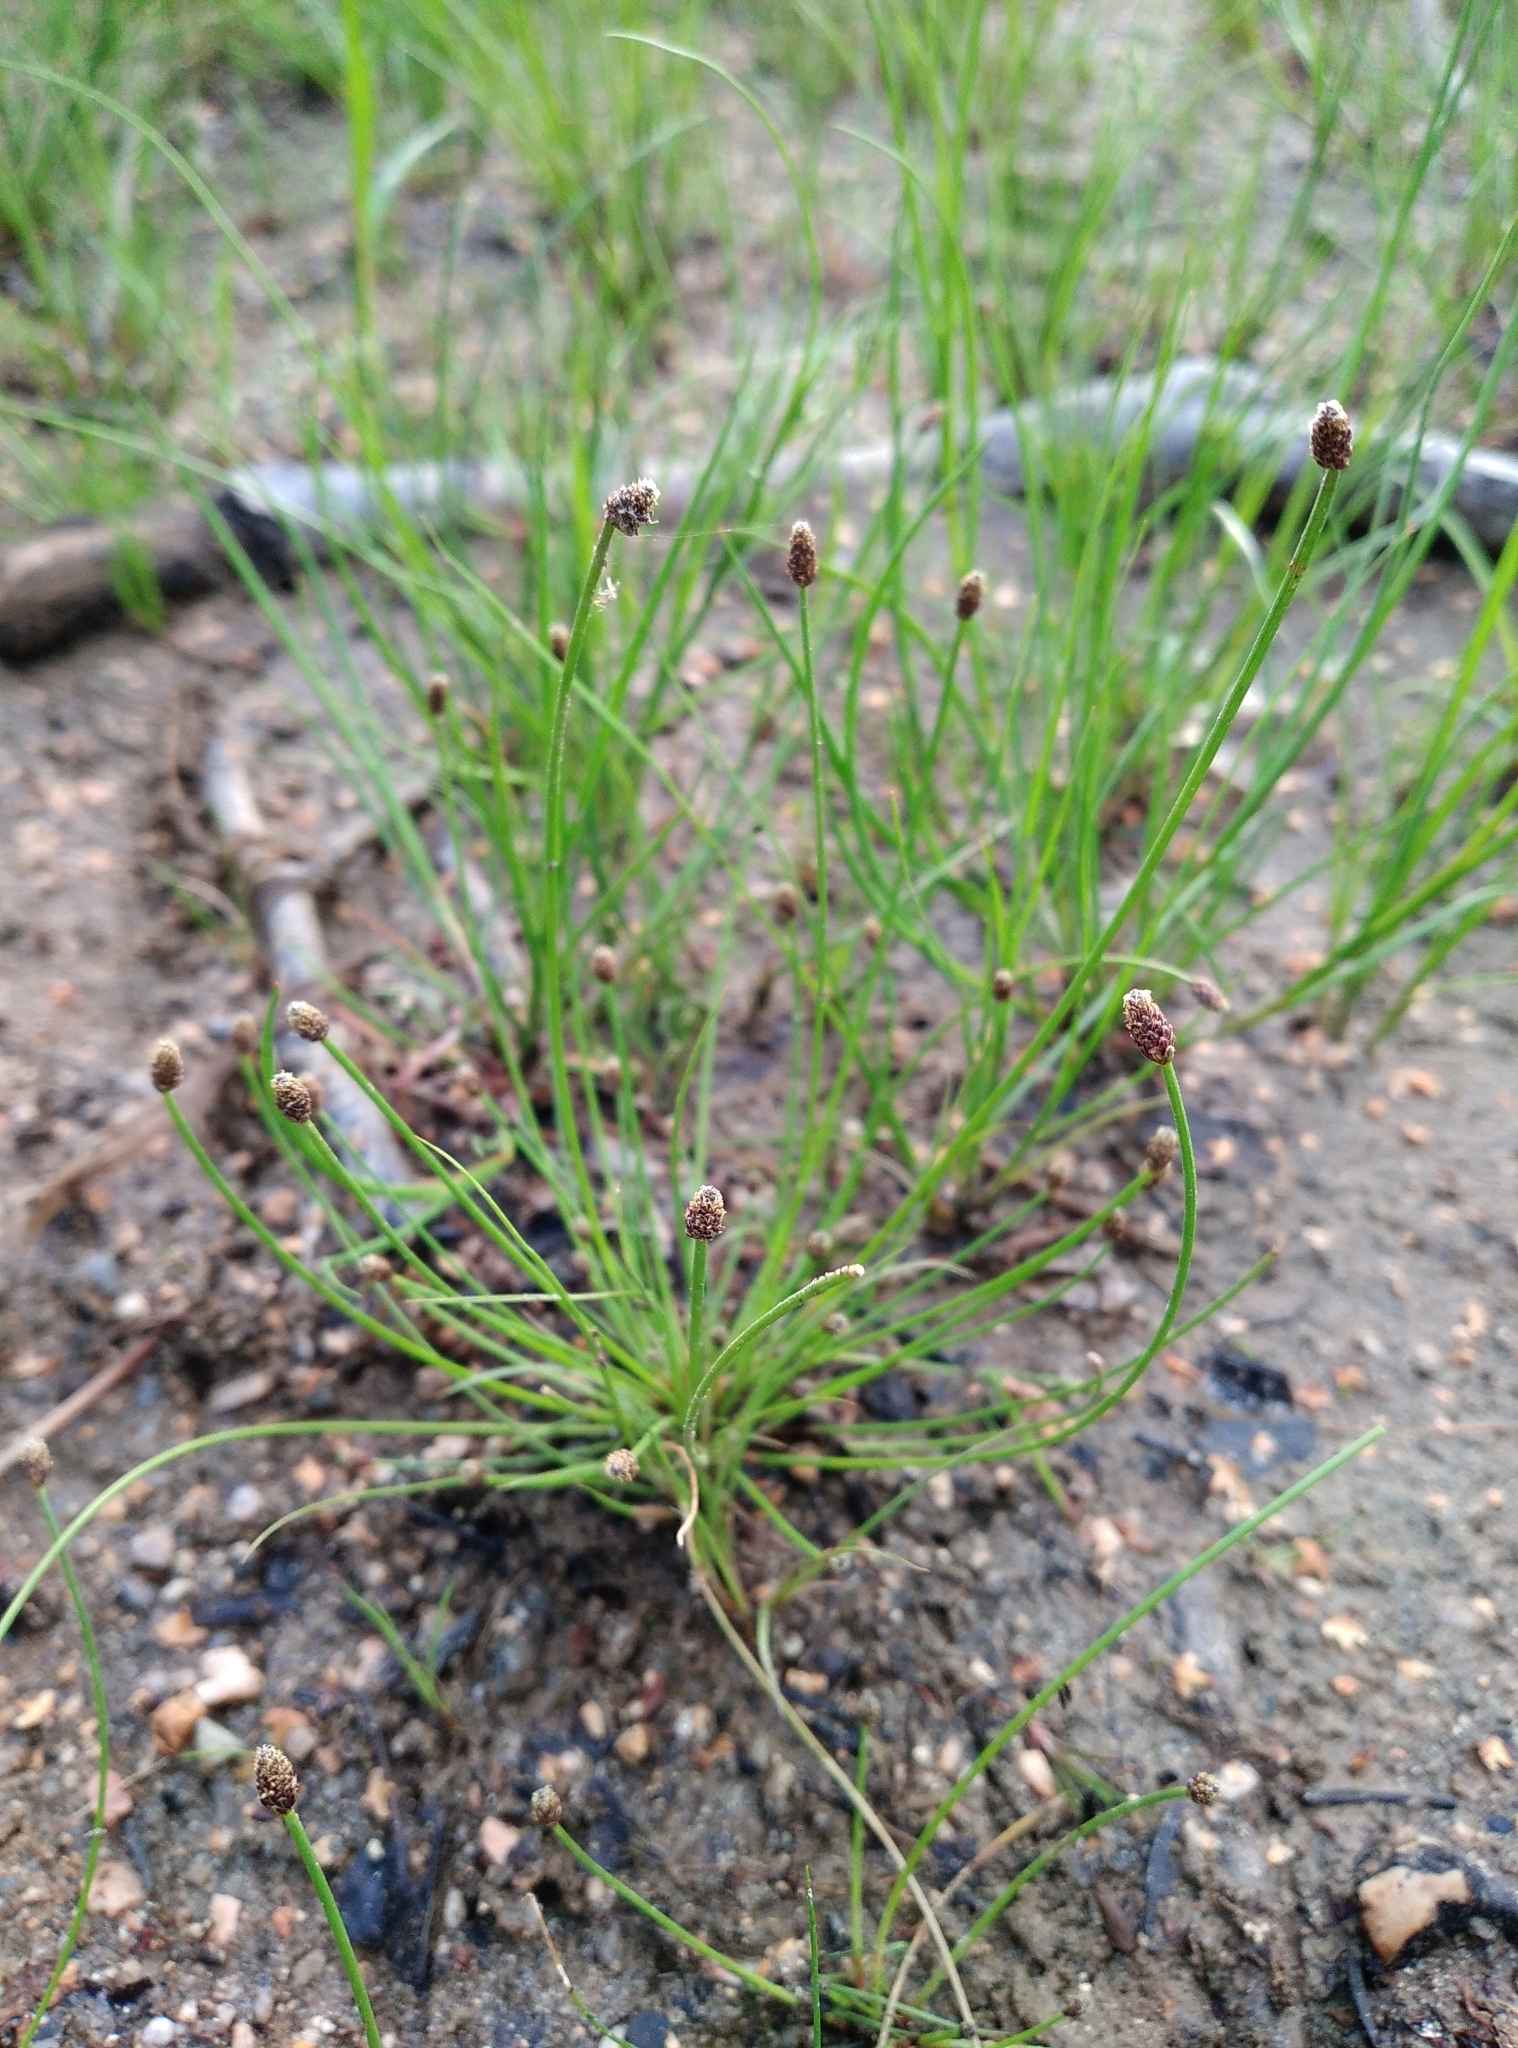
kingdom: Plantae
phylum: Tracheophyta
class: Liliopsida
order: Poales
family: Cyperaceae
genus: Eleocharis
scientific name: Eleocharis ovata
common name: Oval spike-rush
